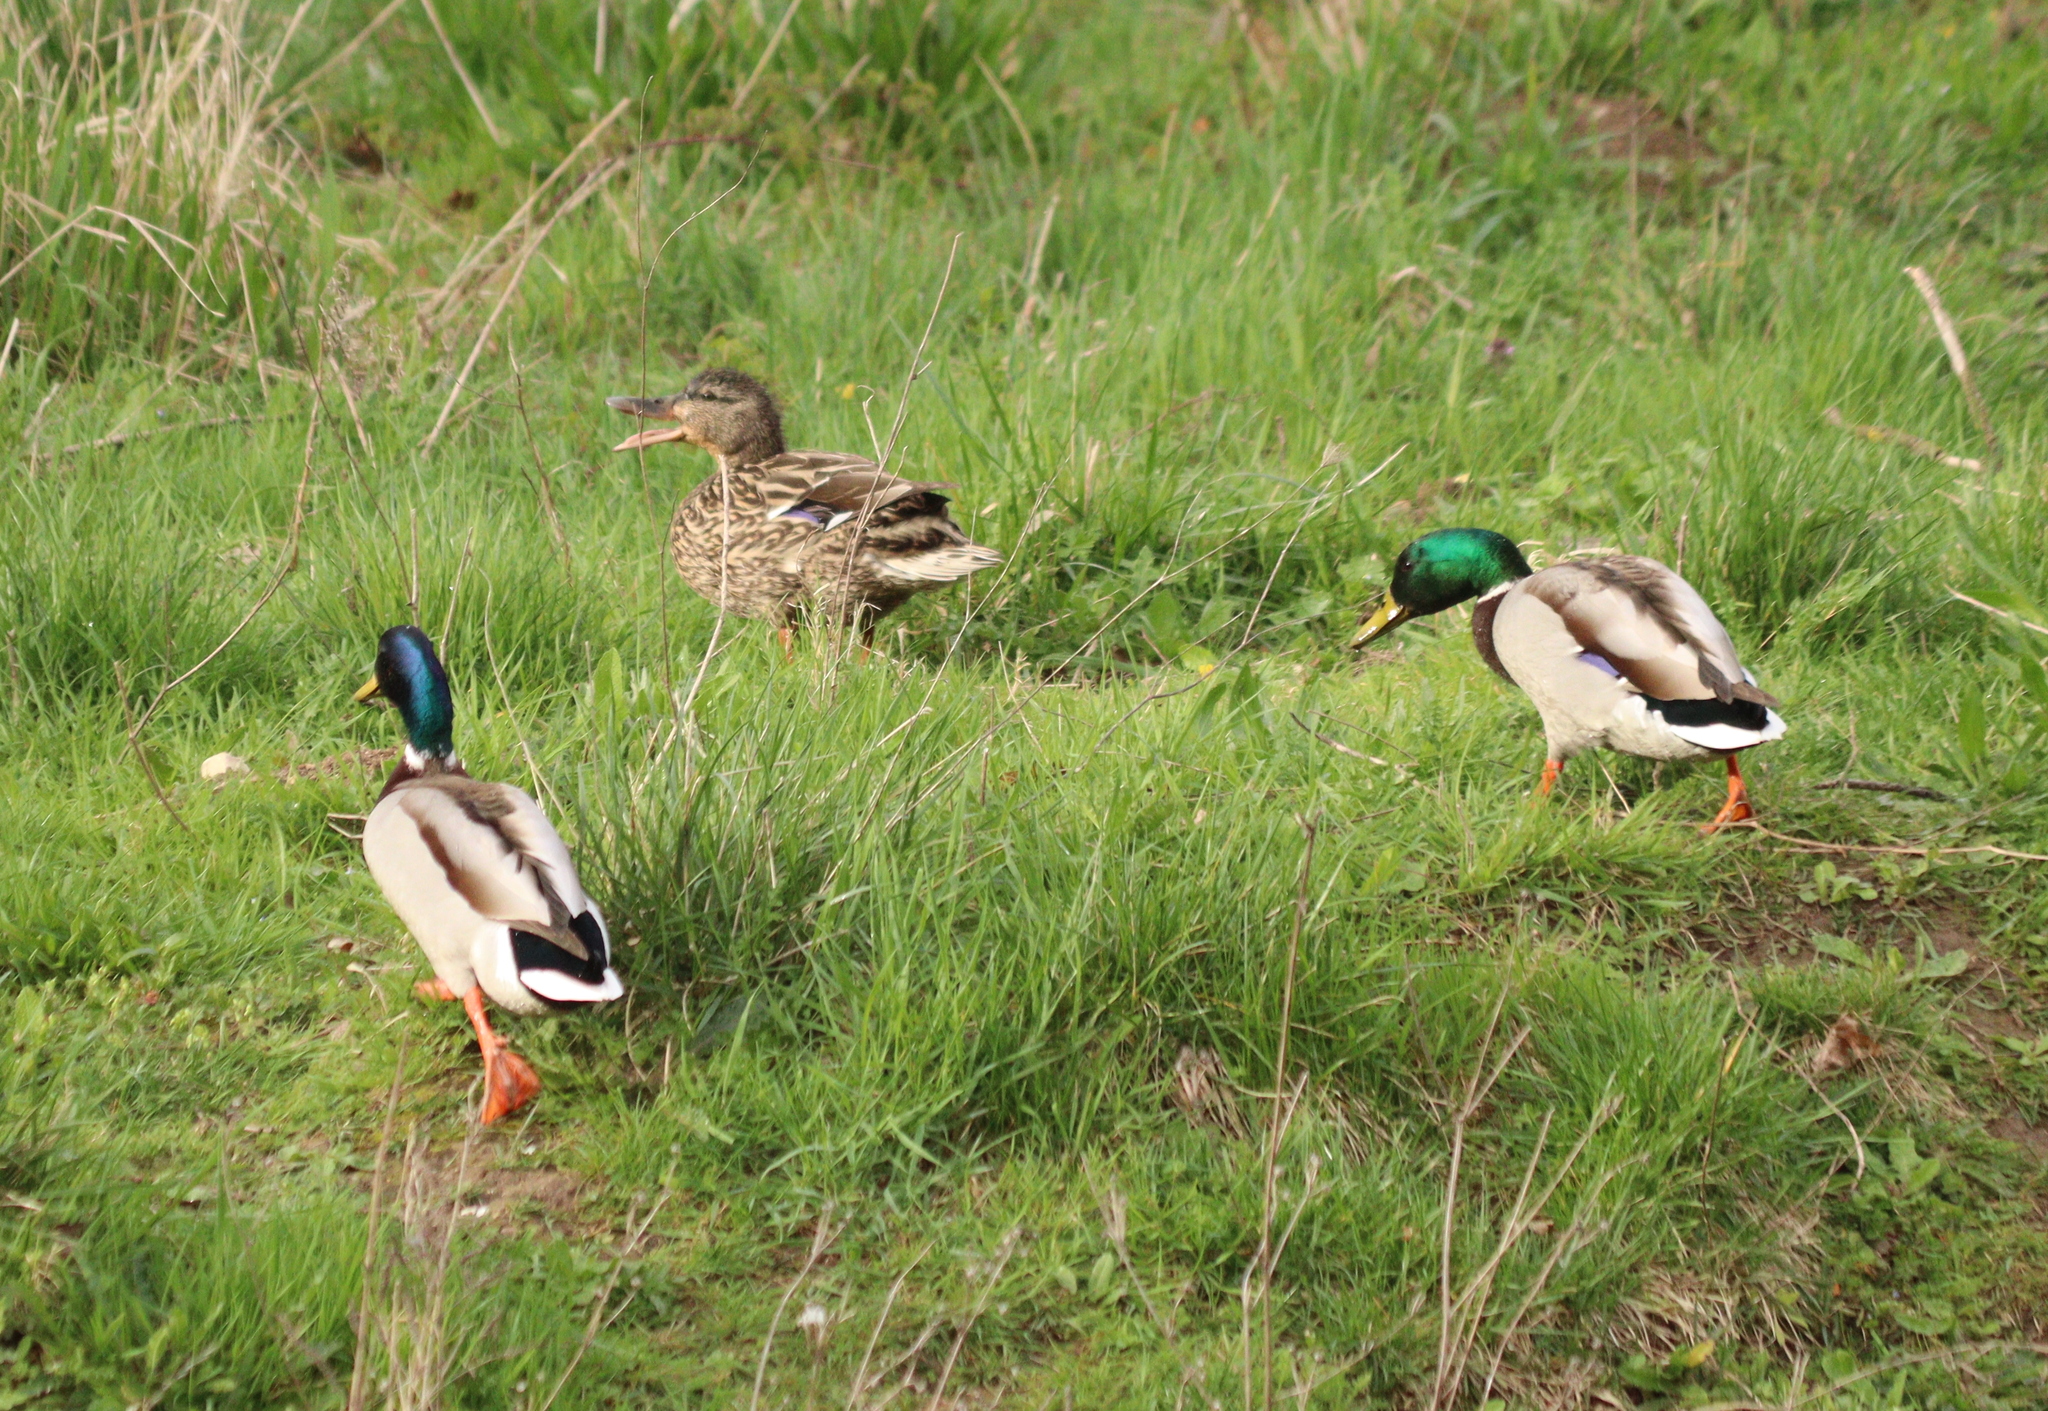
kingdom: Animalia
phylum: Chordata
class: Aves
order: Anseriformes
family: Anatidae
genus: Anas
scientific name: Anas platyrhynchos
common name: Mallard
